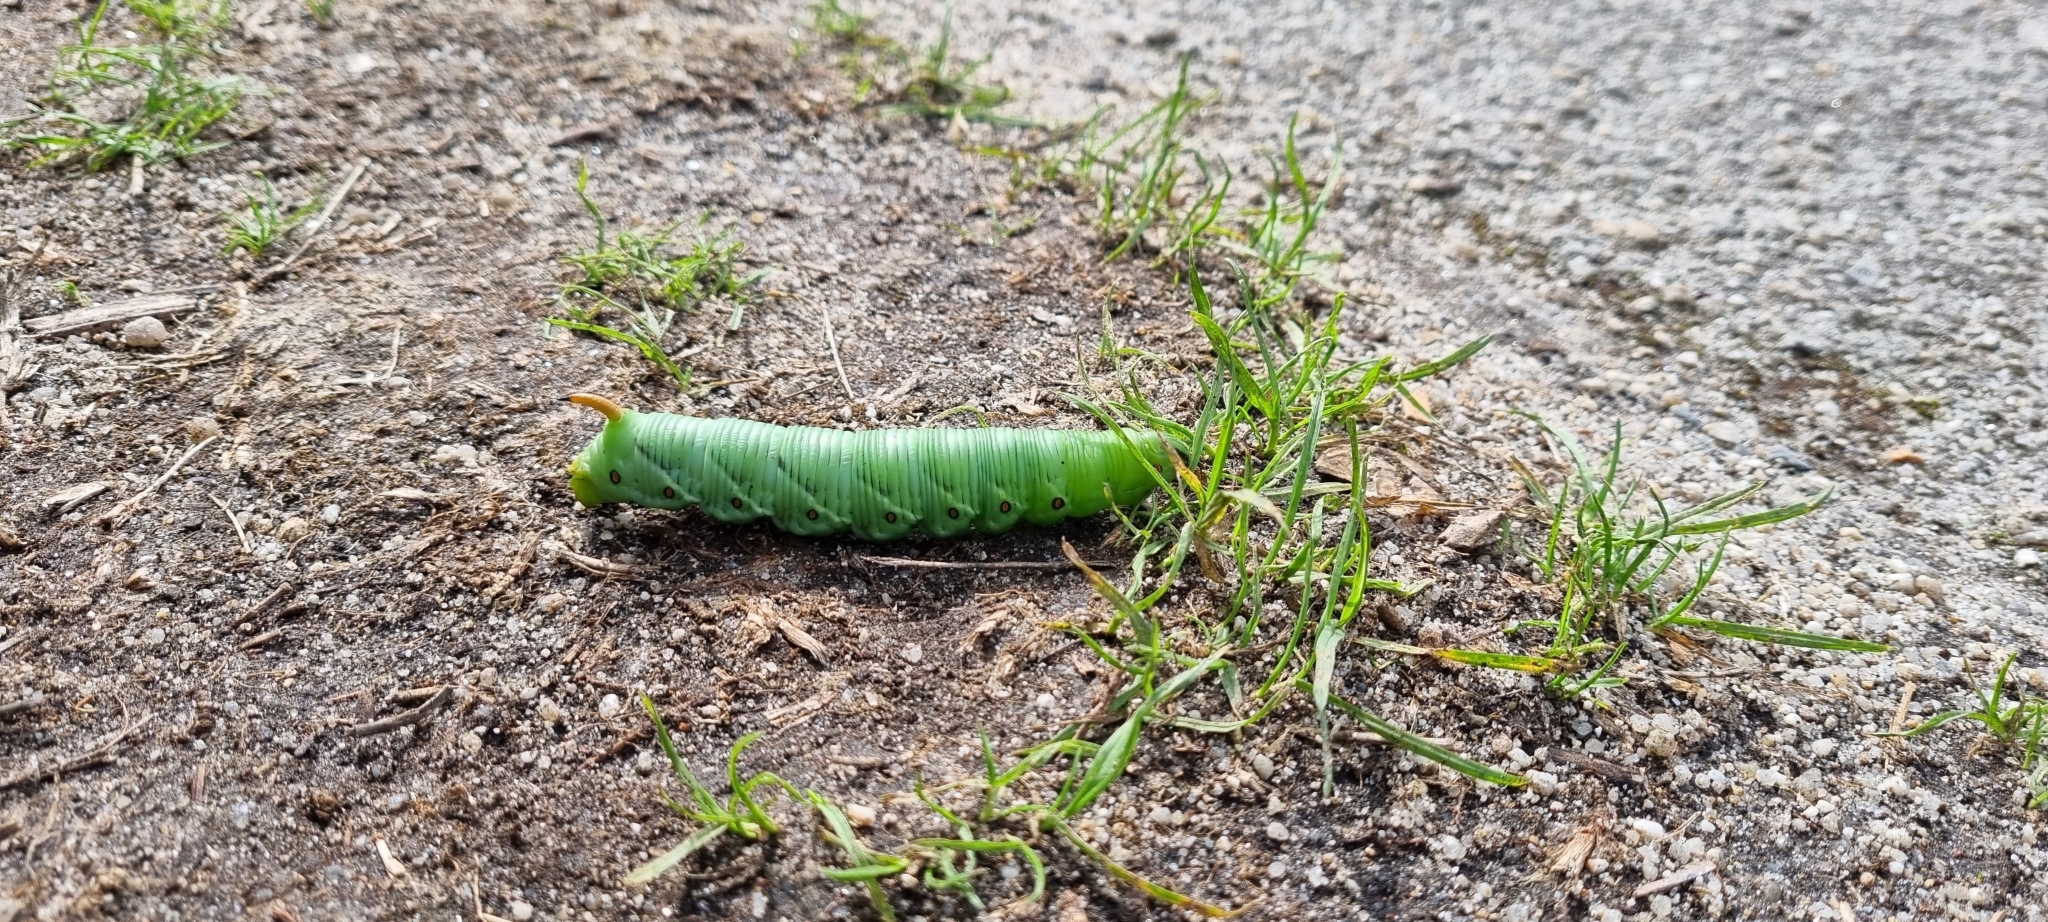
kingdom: Animalia
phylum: Arthropoda
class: Insecta
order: Lepidoptera
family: Sphingidae
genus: Agrius
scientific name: Agrius convolvuli
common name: Convolvulus hawkmoth
